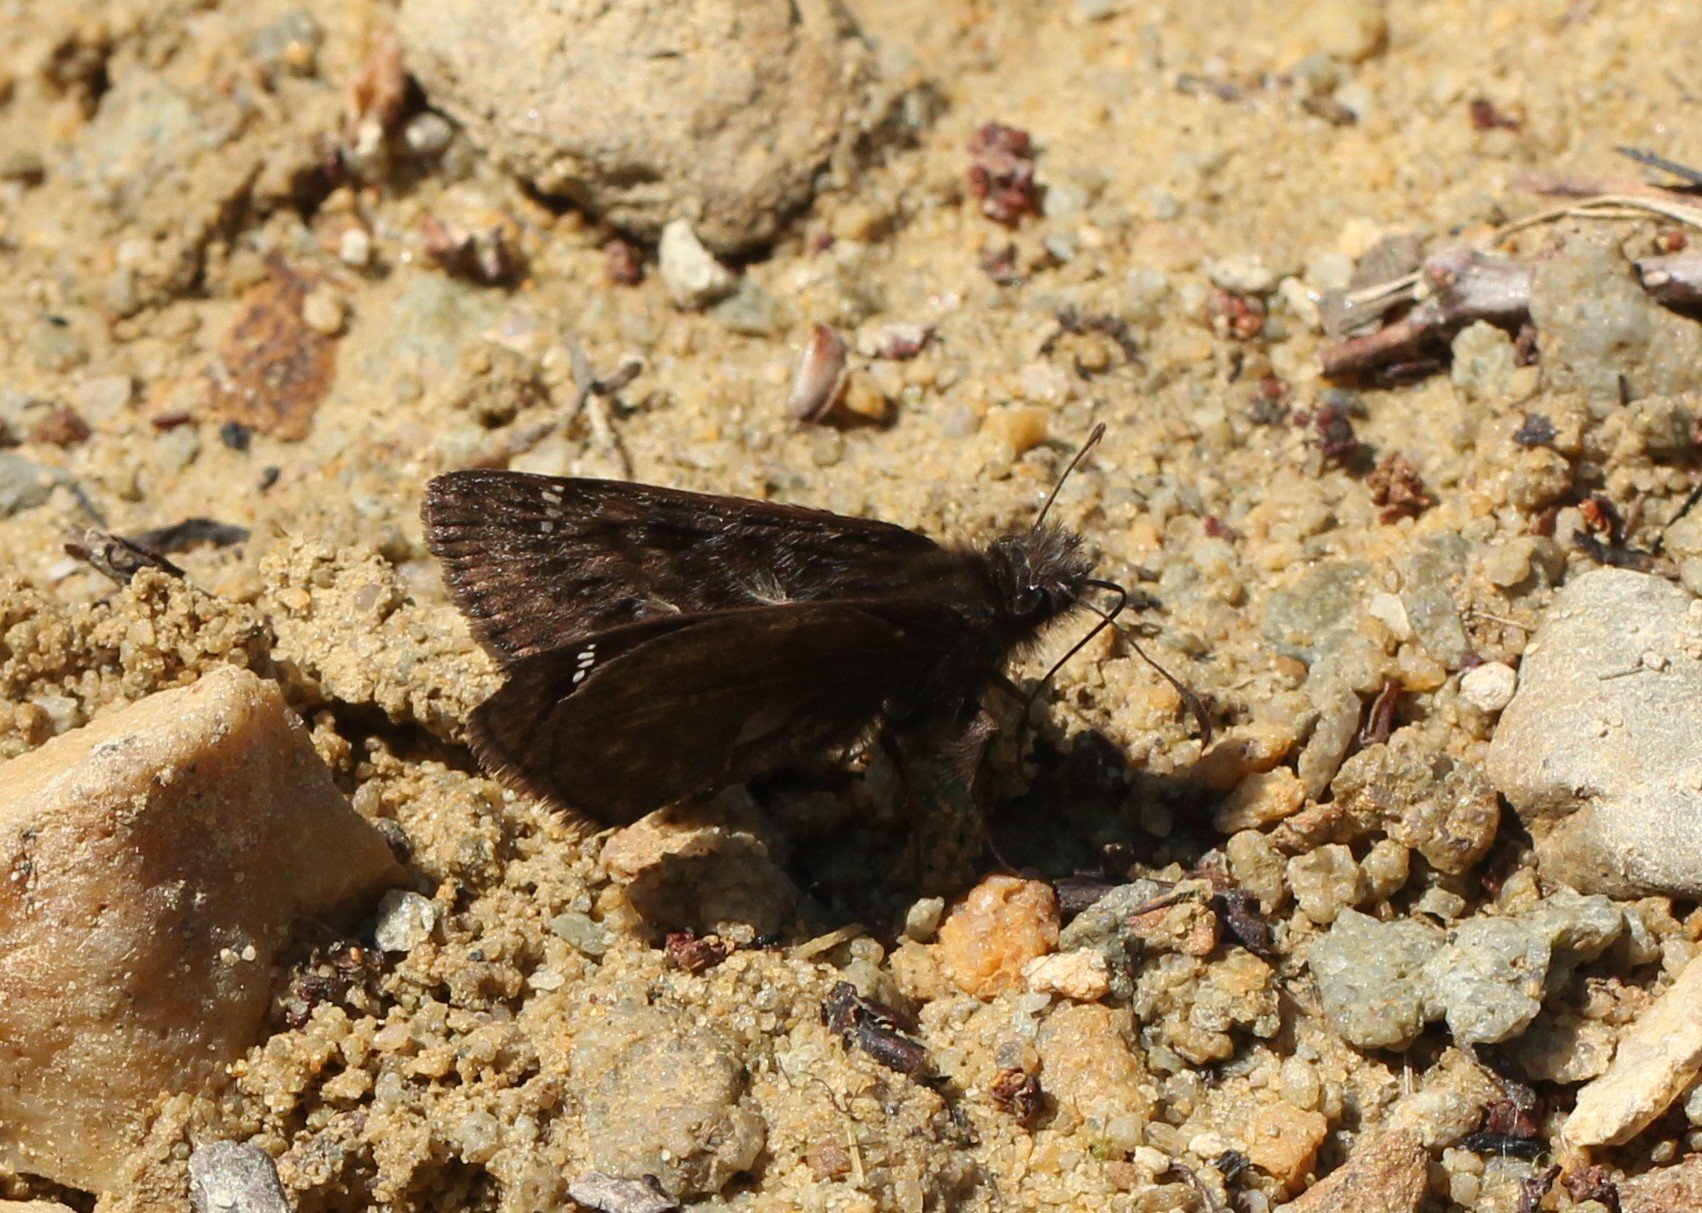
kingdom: Animalia
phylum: Arthropoda
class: Insecta
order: Lepidoptera
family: Hesperiidae
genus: Erynnis
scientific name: Erynnis juvenalis
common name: Juvenal's duskywing
